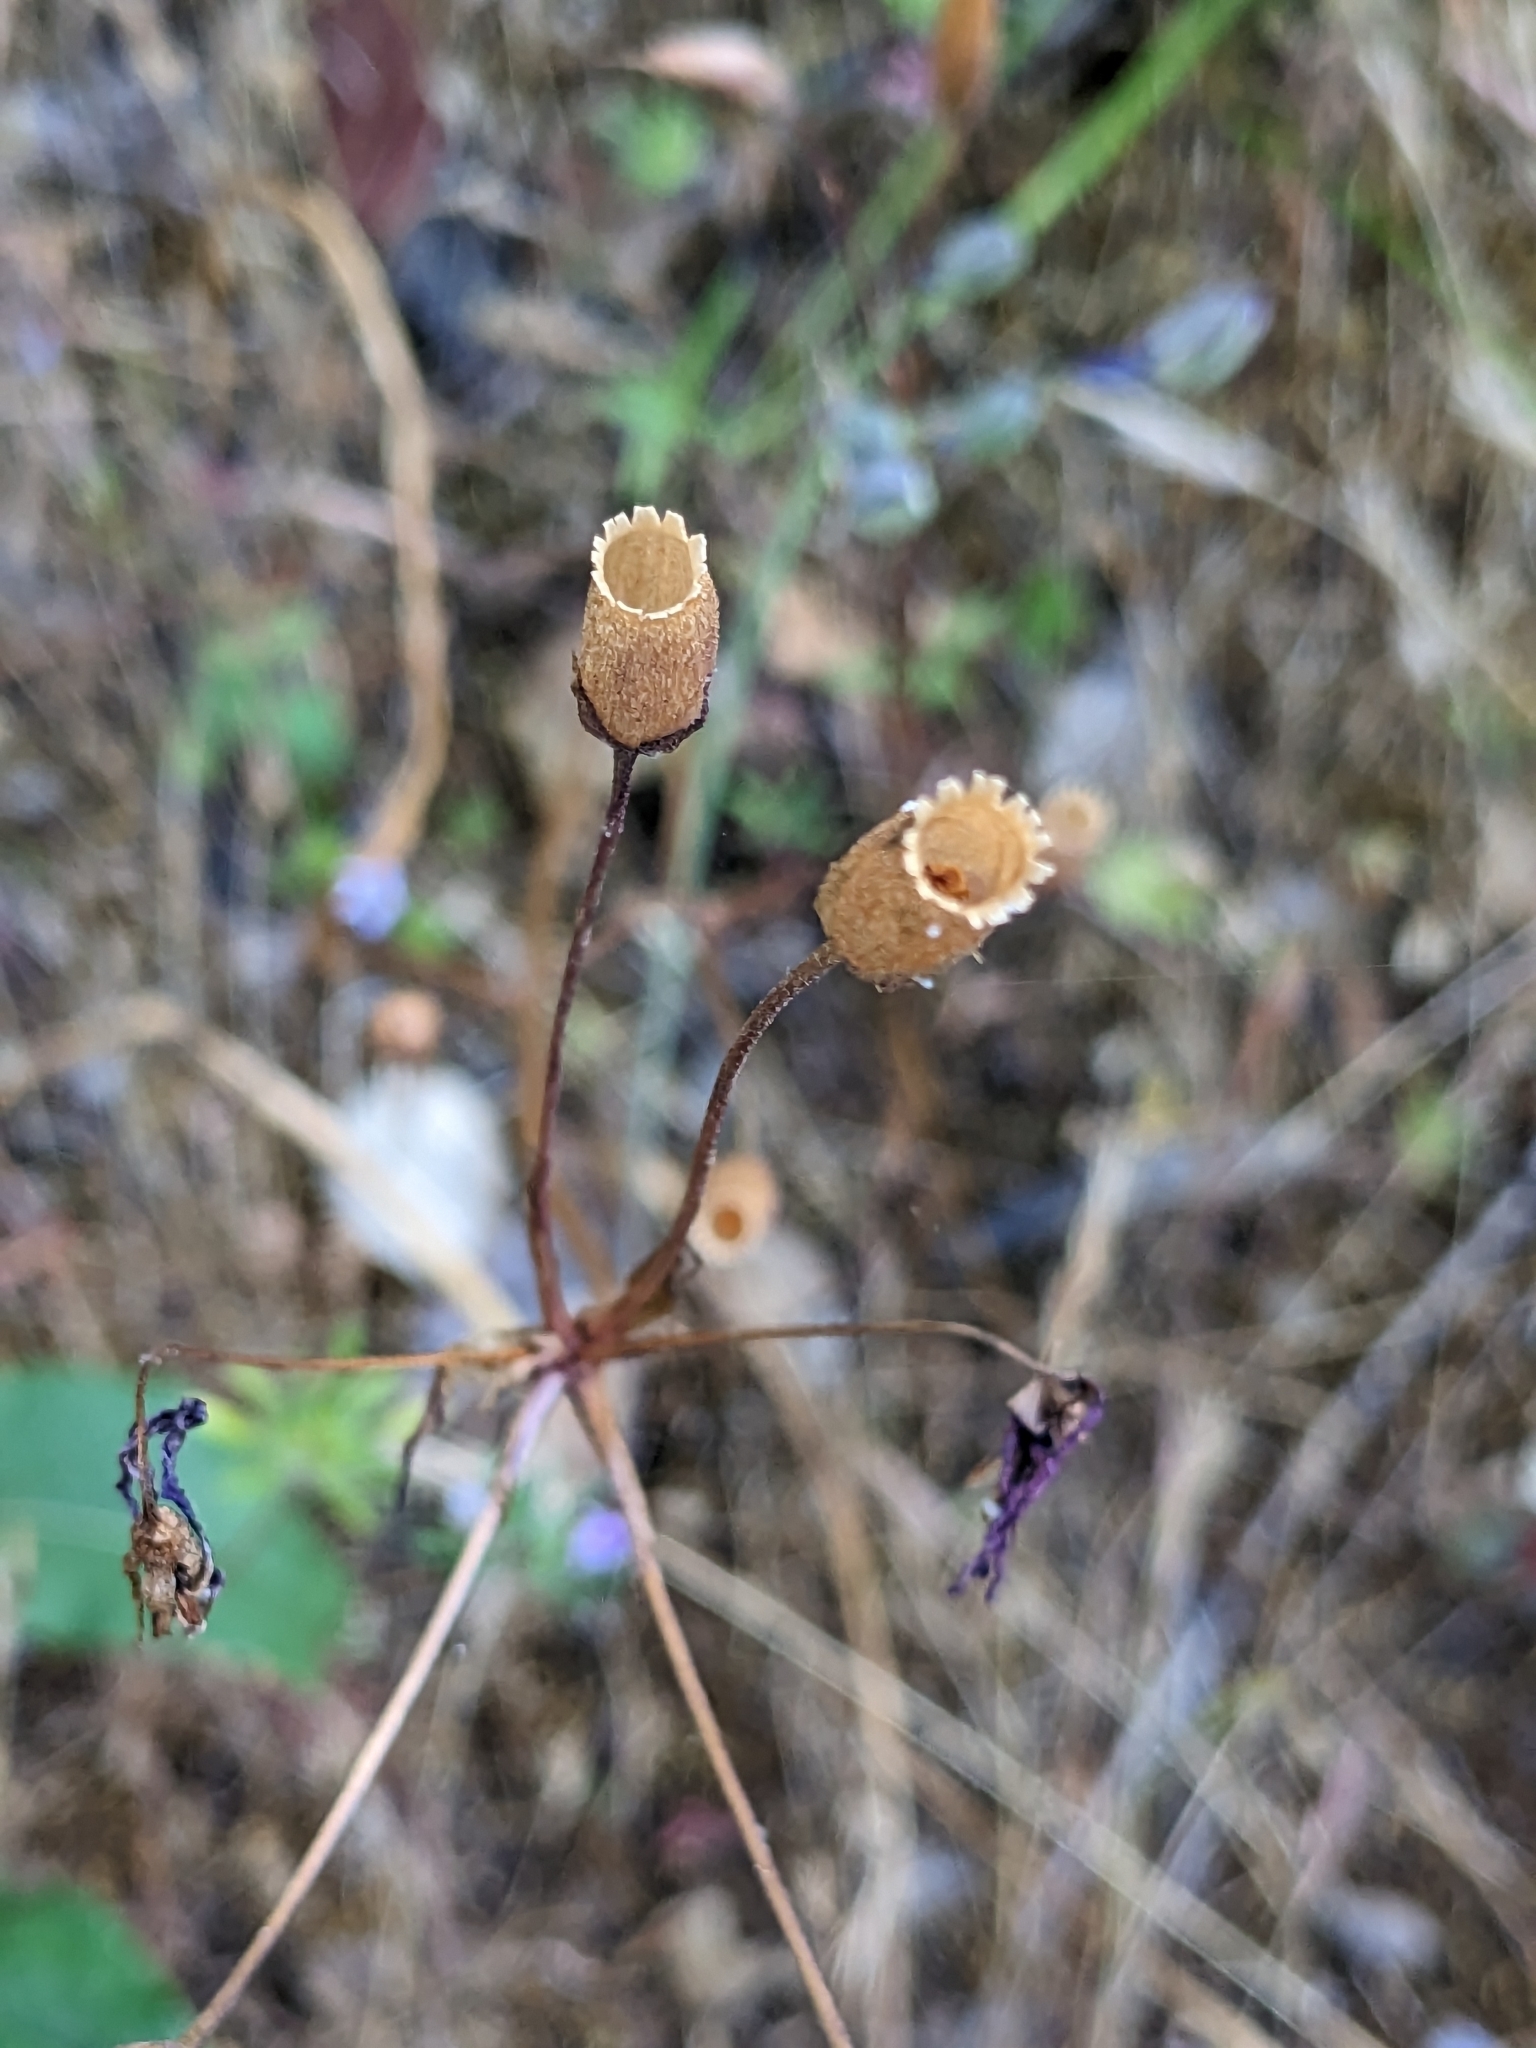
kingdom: Plantae
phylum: Tracheophyta
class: Magnoliopsida
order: Ericales
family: Primulaceae
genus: Dodecatheon
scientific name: Dodecatheon hendersonii
